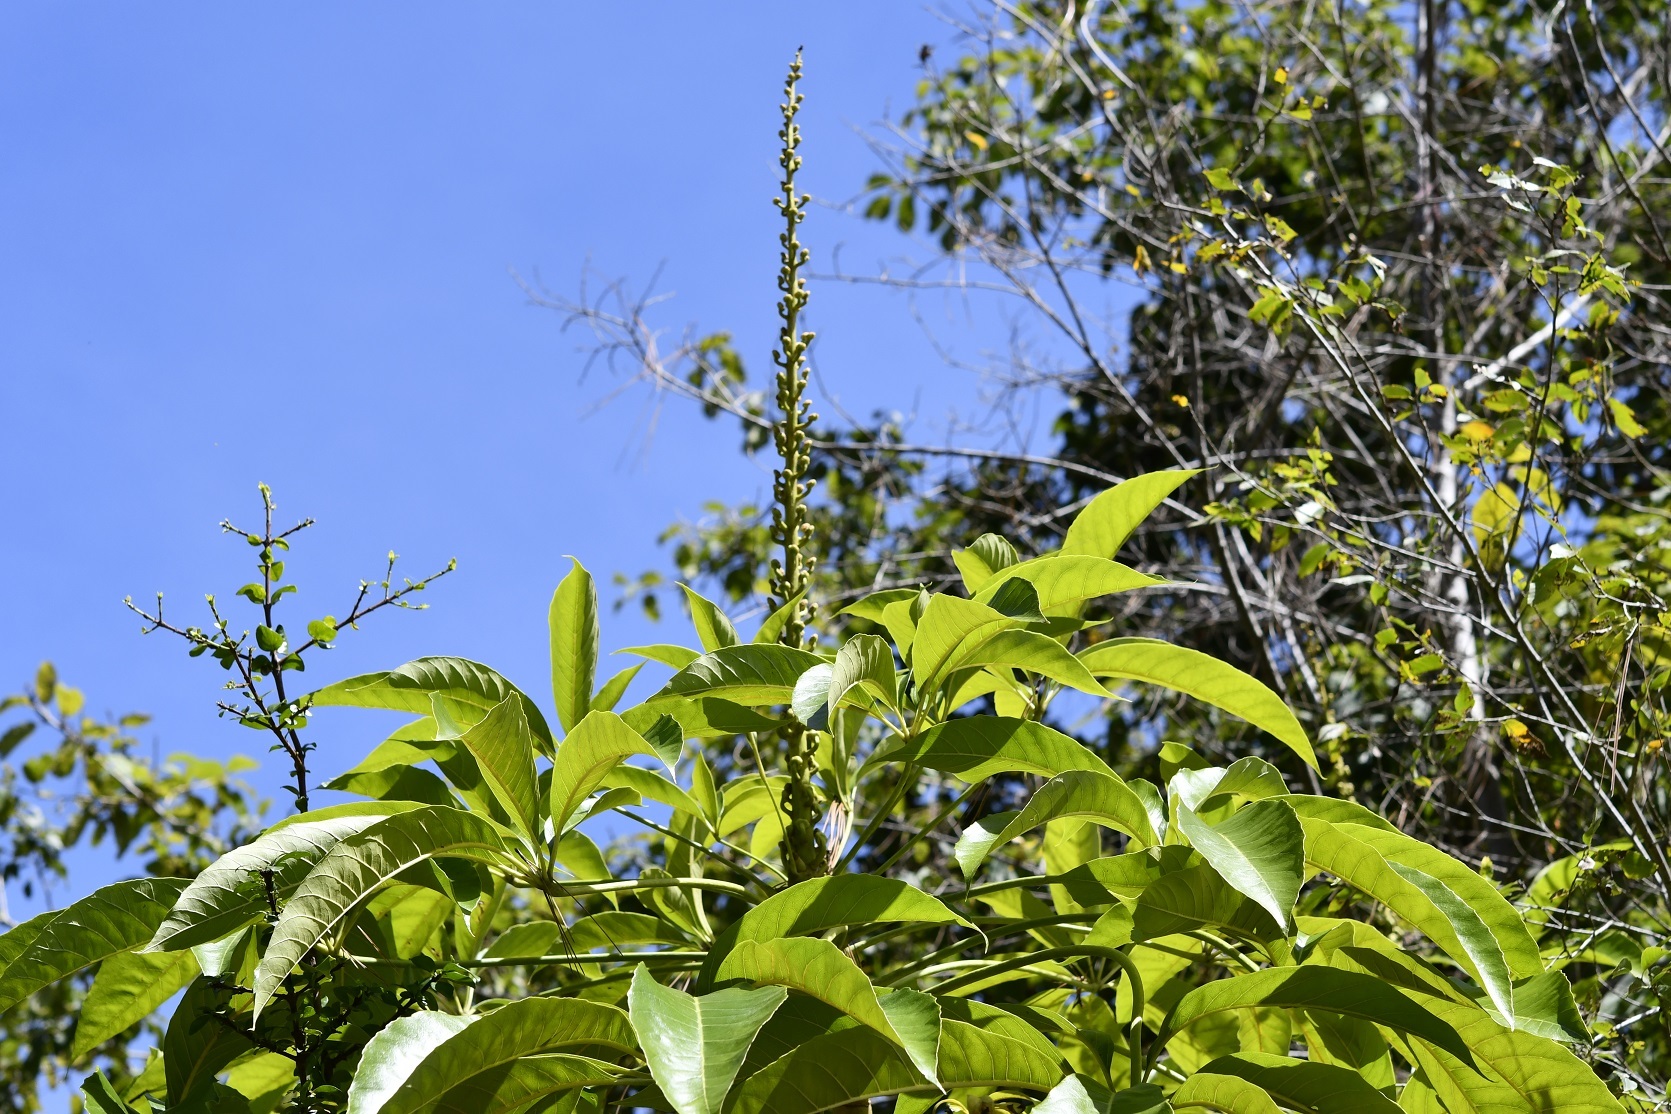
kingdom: Plantae
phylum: Tracheophyta
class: Magnoliopsida
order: Apiales
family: Araliaceae
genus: Oreopanax
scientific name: Oreopanax xalapensis
